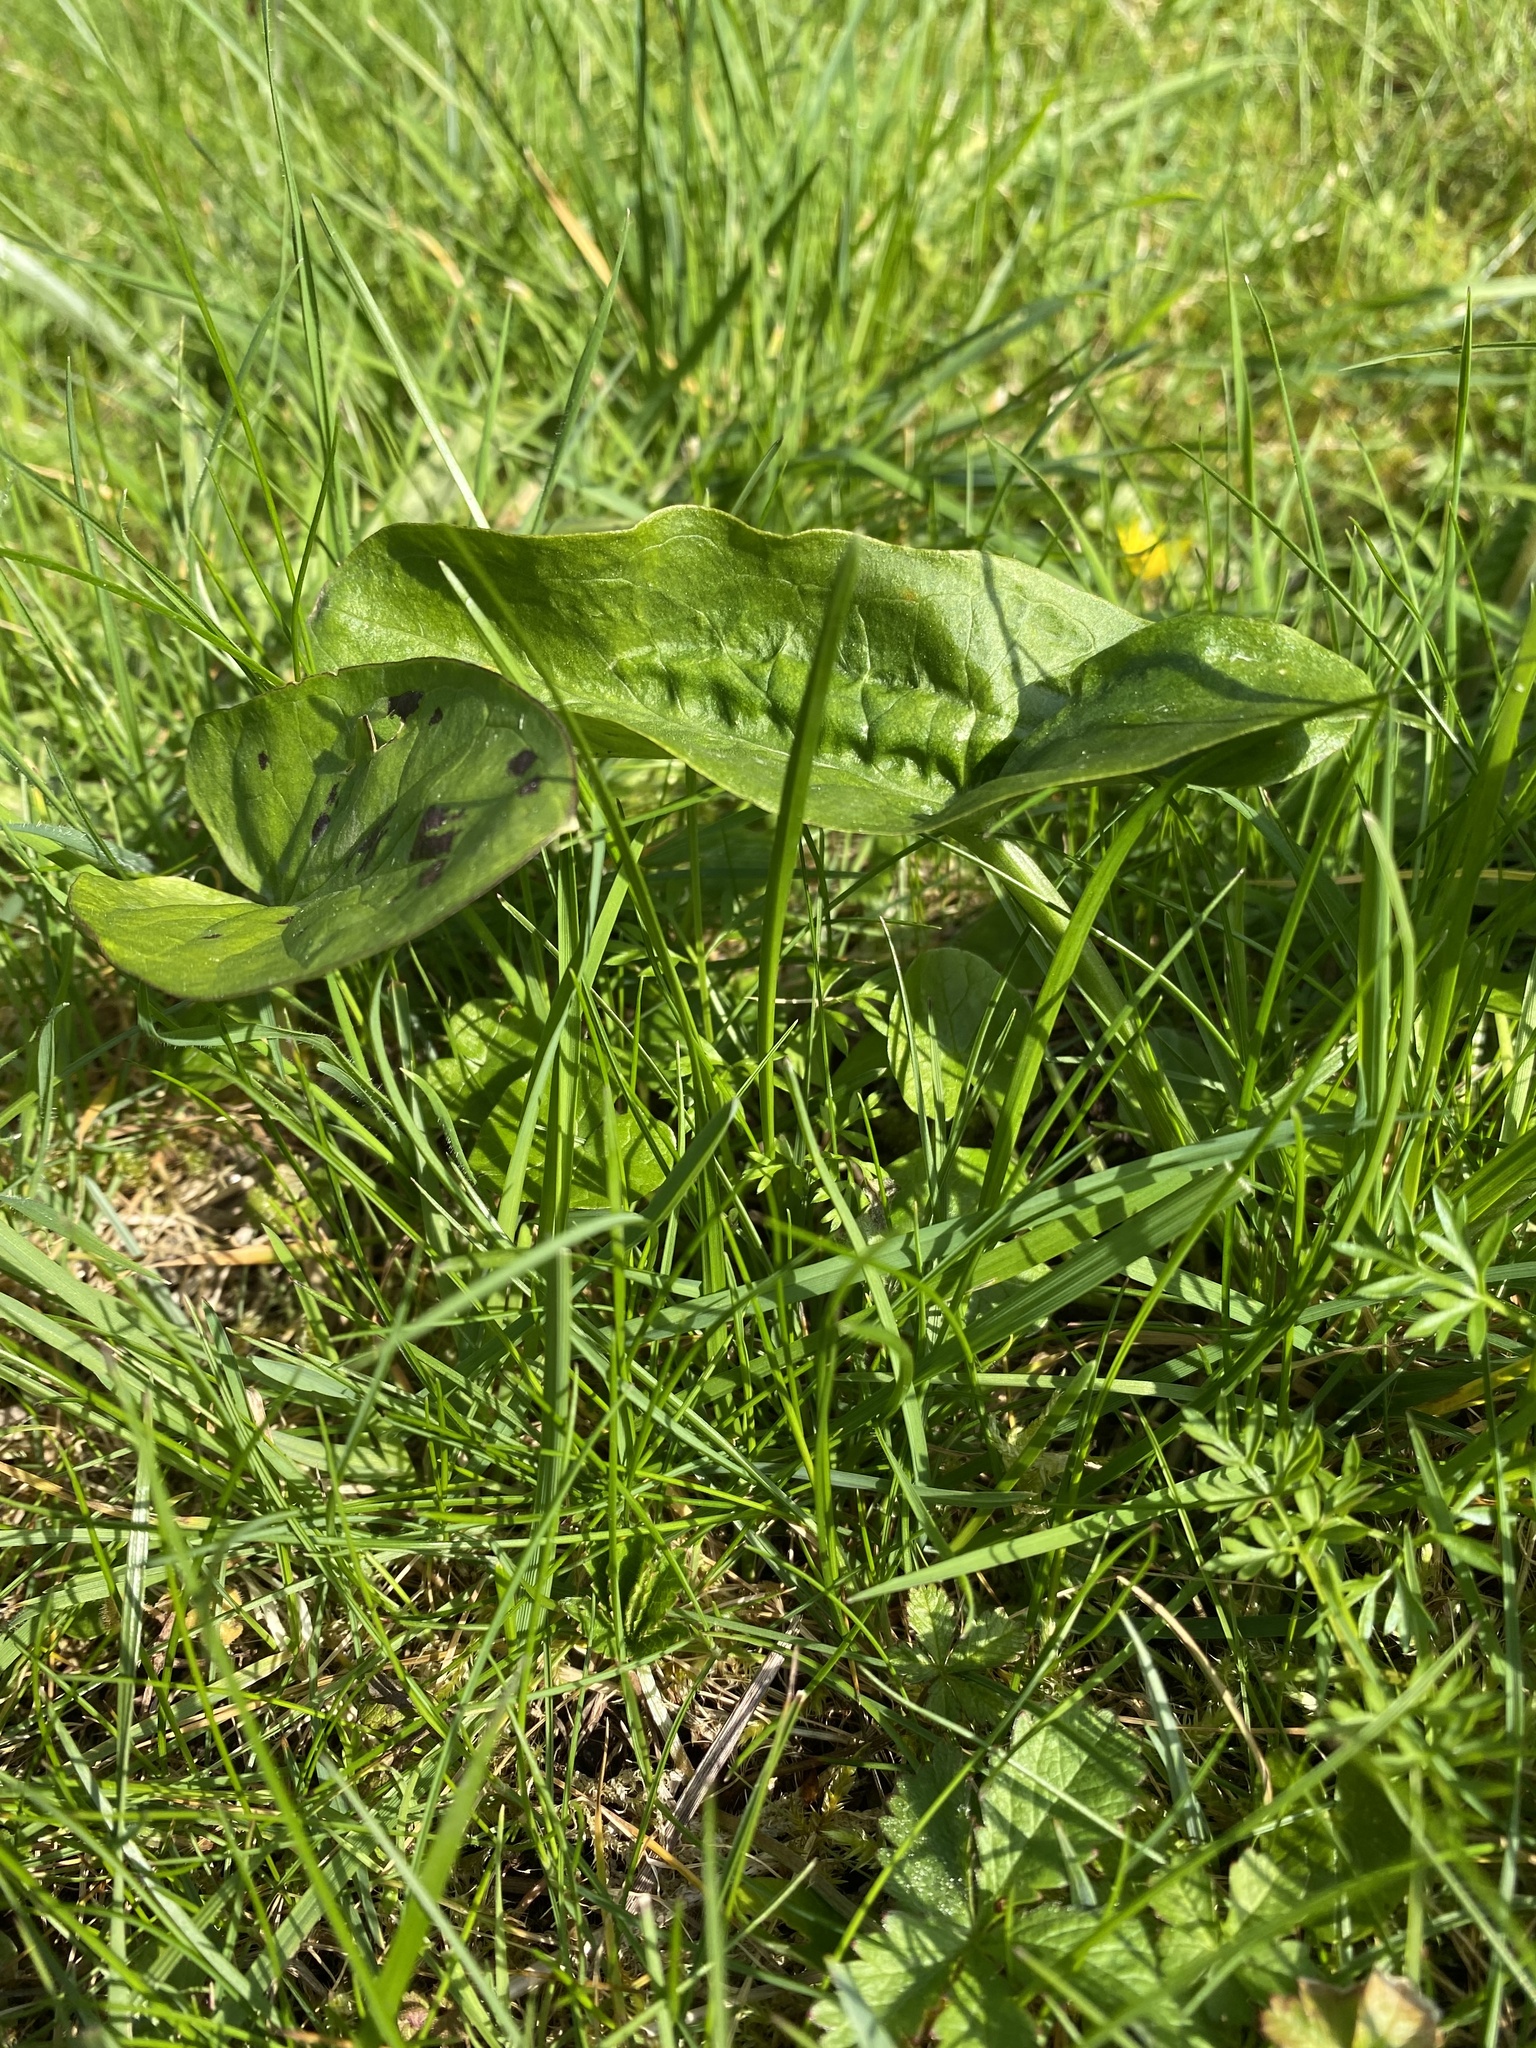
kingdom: Plantae
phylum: Tracheophyta
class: Liliopsida
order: Alismatales
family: Araceae
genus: Arum
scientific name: Arum maculatum
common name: Lords-and-ladies
